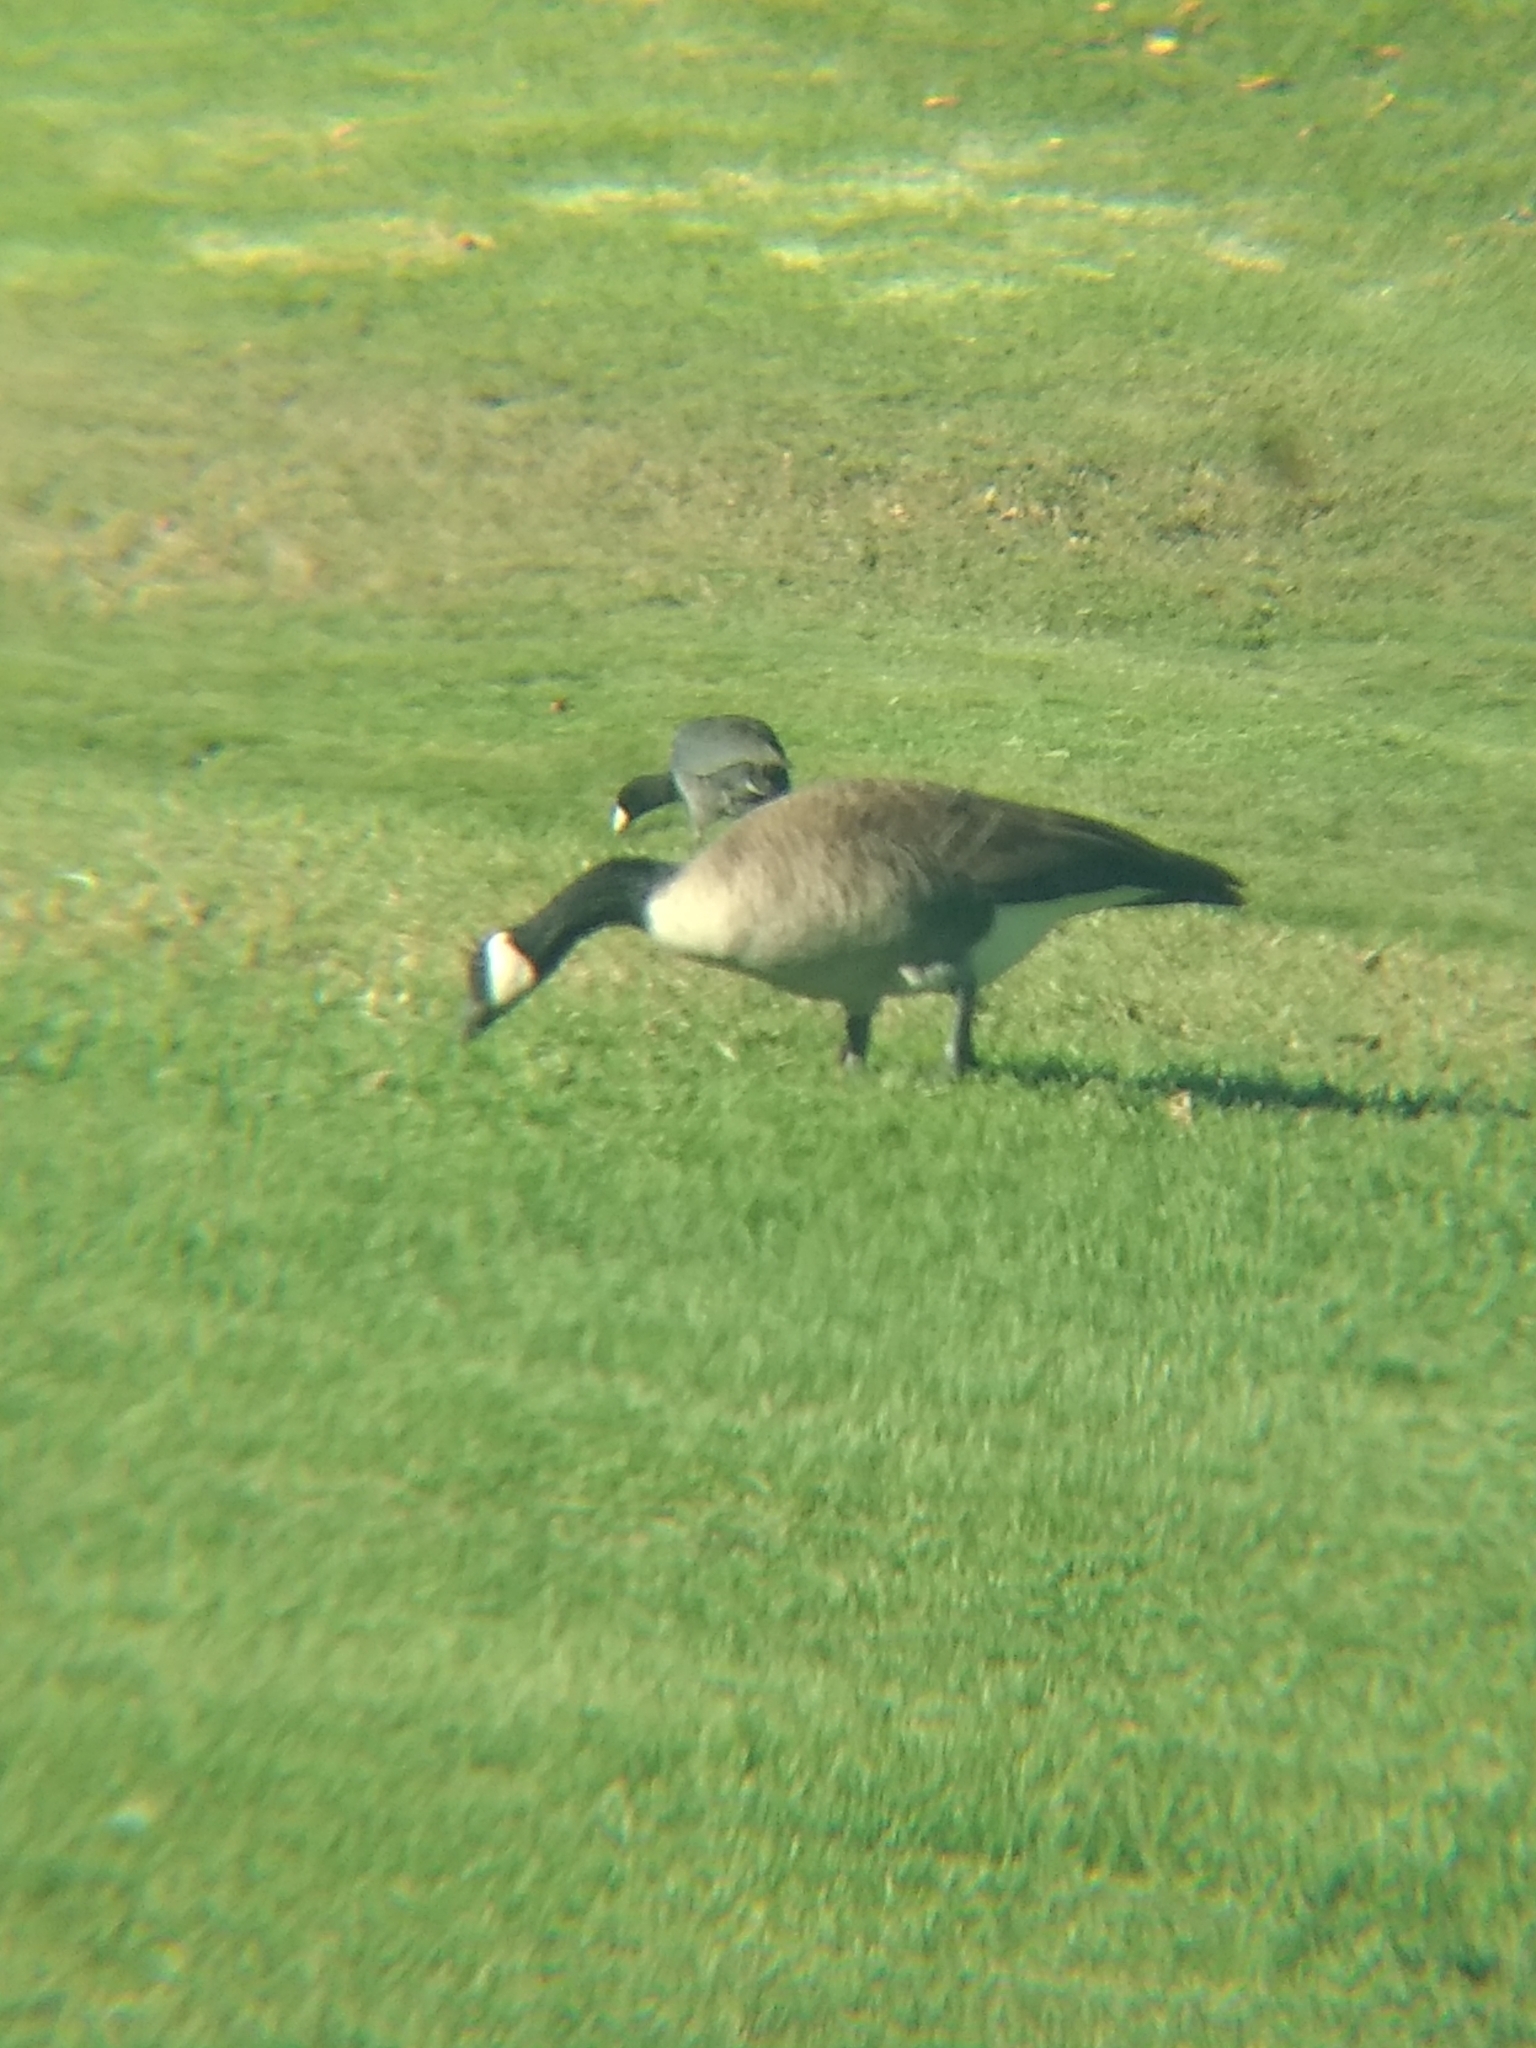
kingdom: Animalia
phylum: Chordata
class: Aves
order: Anseriformes
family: Anatidae
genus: Branta
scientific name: Branta canadensis
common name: Canada goose
